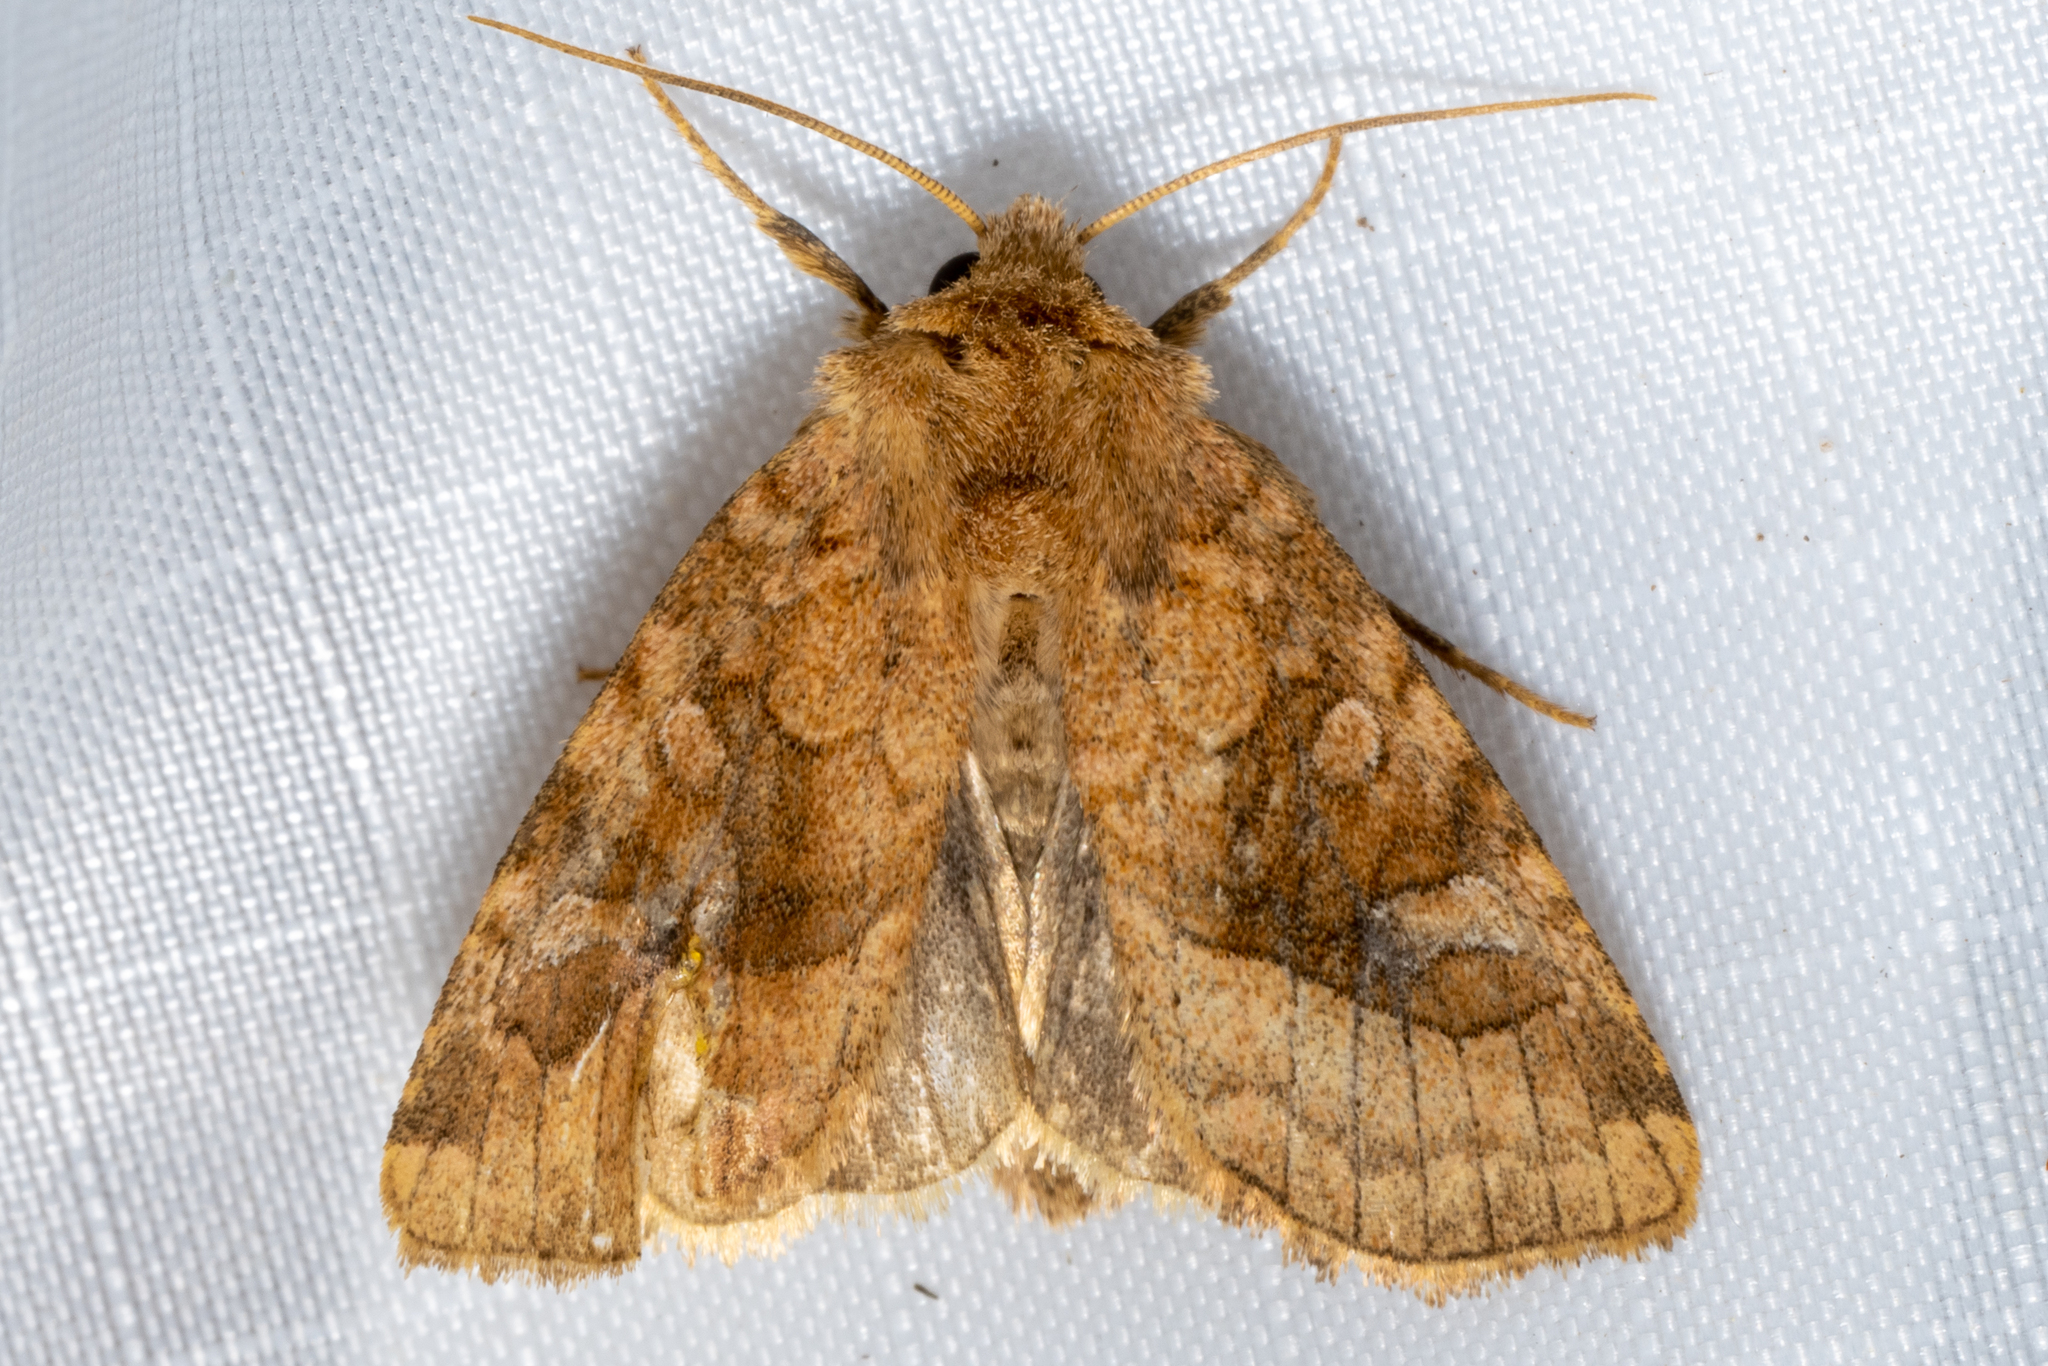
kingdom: Animalia
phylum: Arthropoda
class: Insecta
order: Lepidoptera
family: Noctuidae
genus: Lacinipolia
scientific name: Lacinipolia lorea
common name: Bridled arches moth
